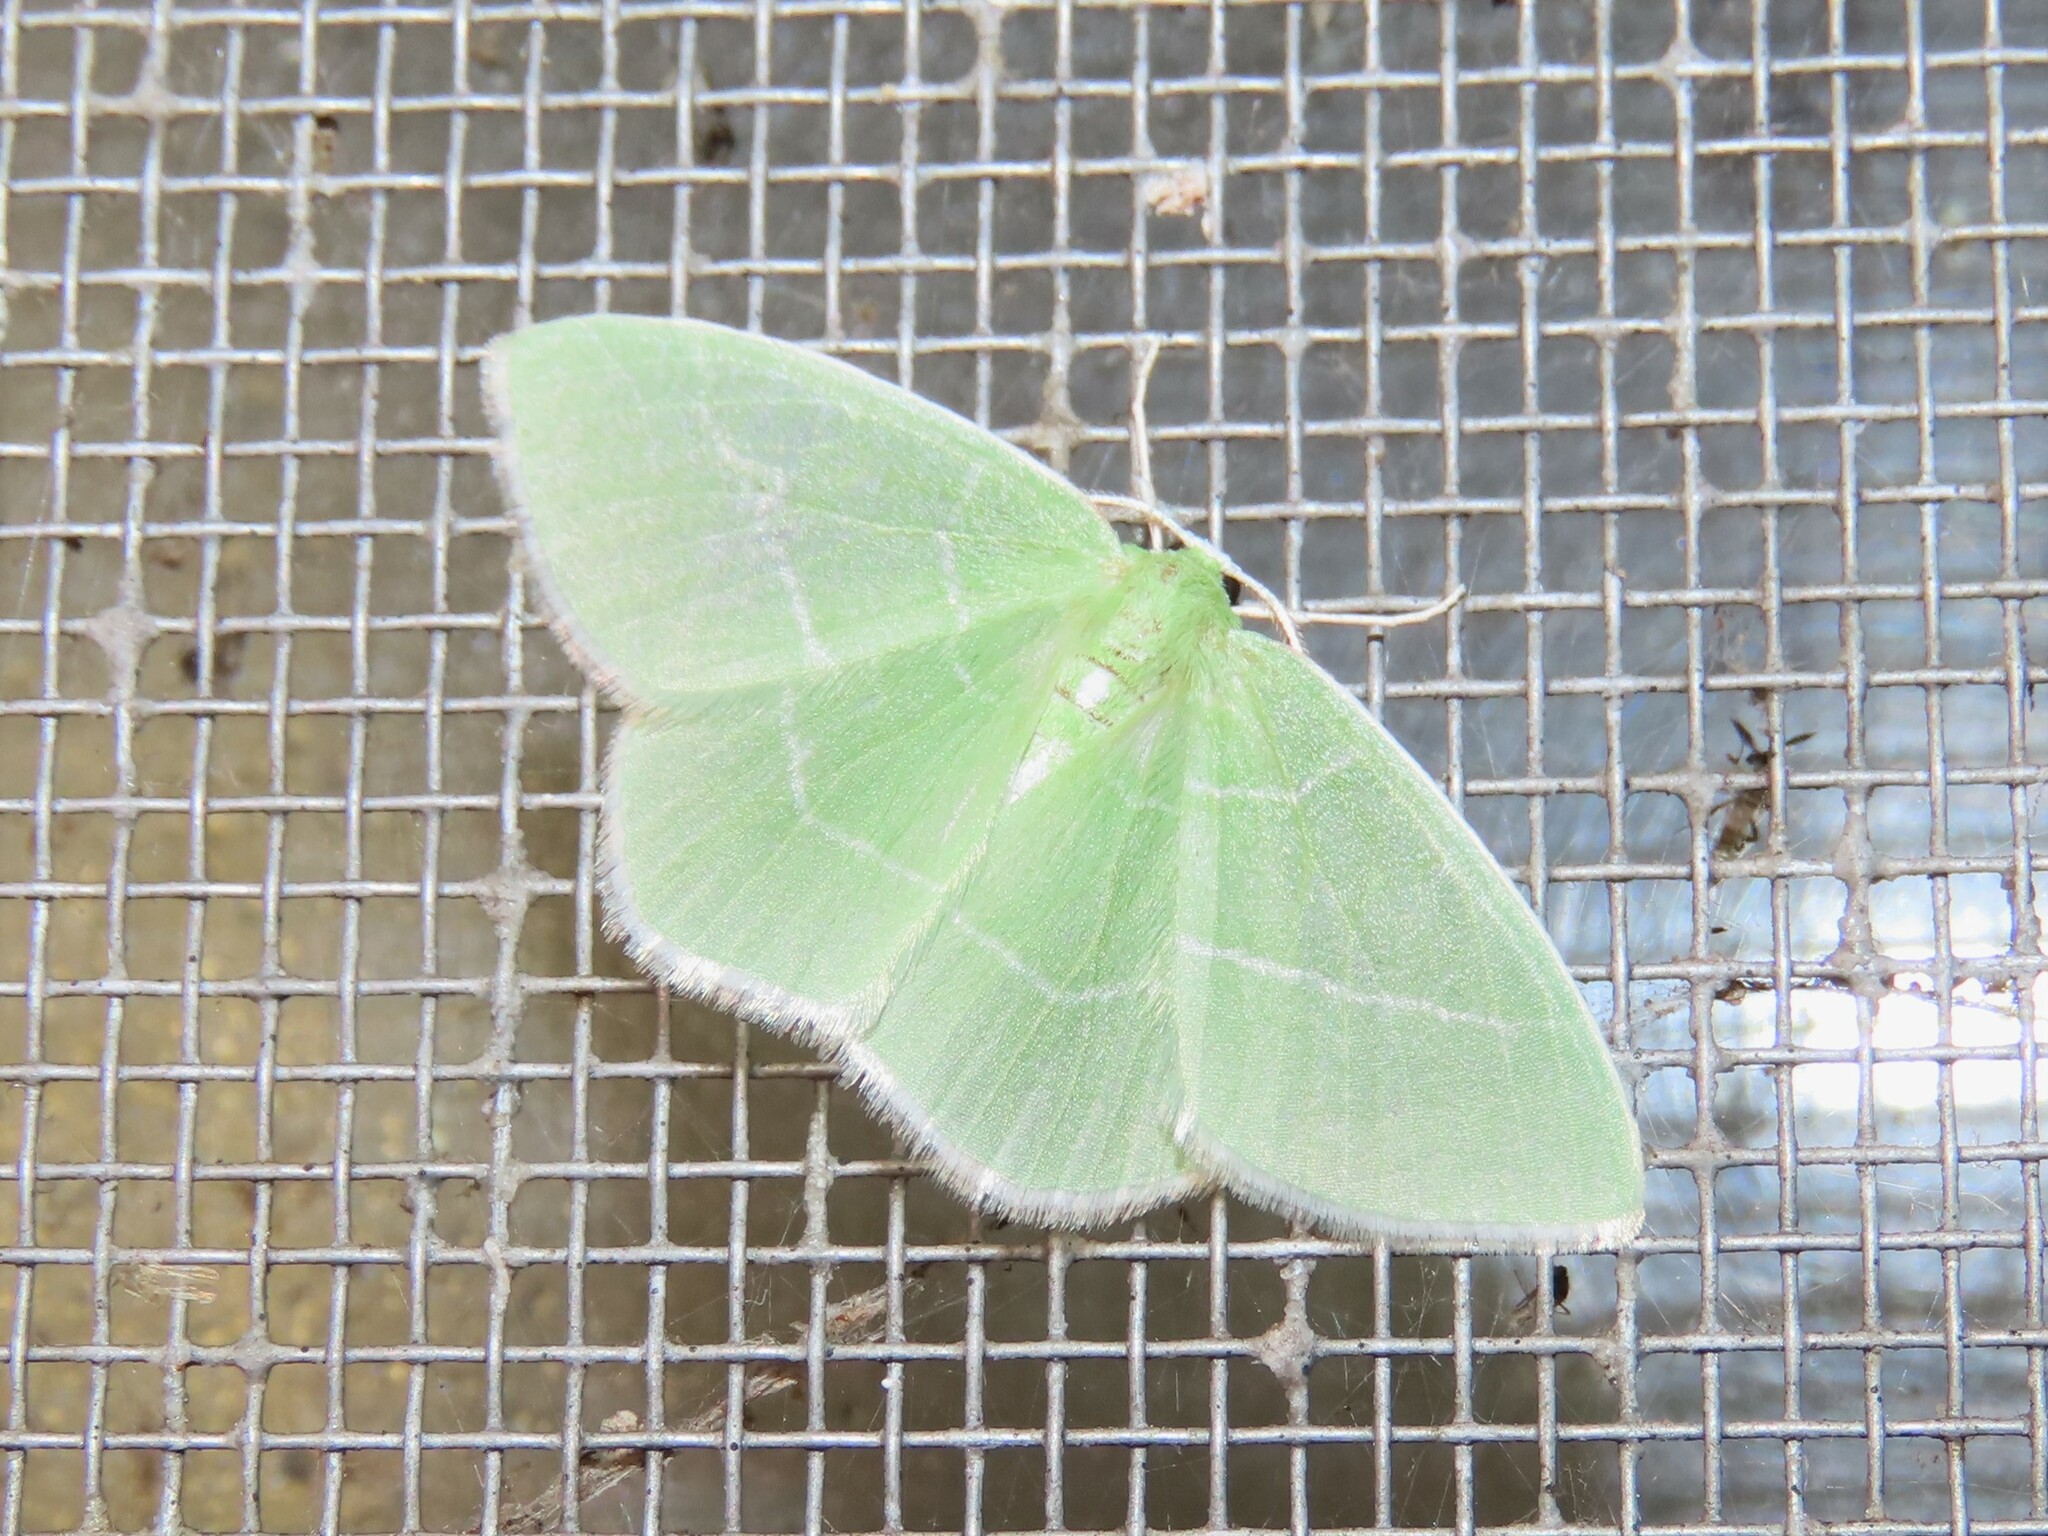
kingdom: Animalia
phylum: Arthropoda
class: Insecta
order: Lepidoptera
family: Geometridae
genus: Nemoria
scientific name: Nemoria mimosaria
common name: White-fringed emerald
